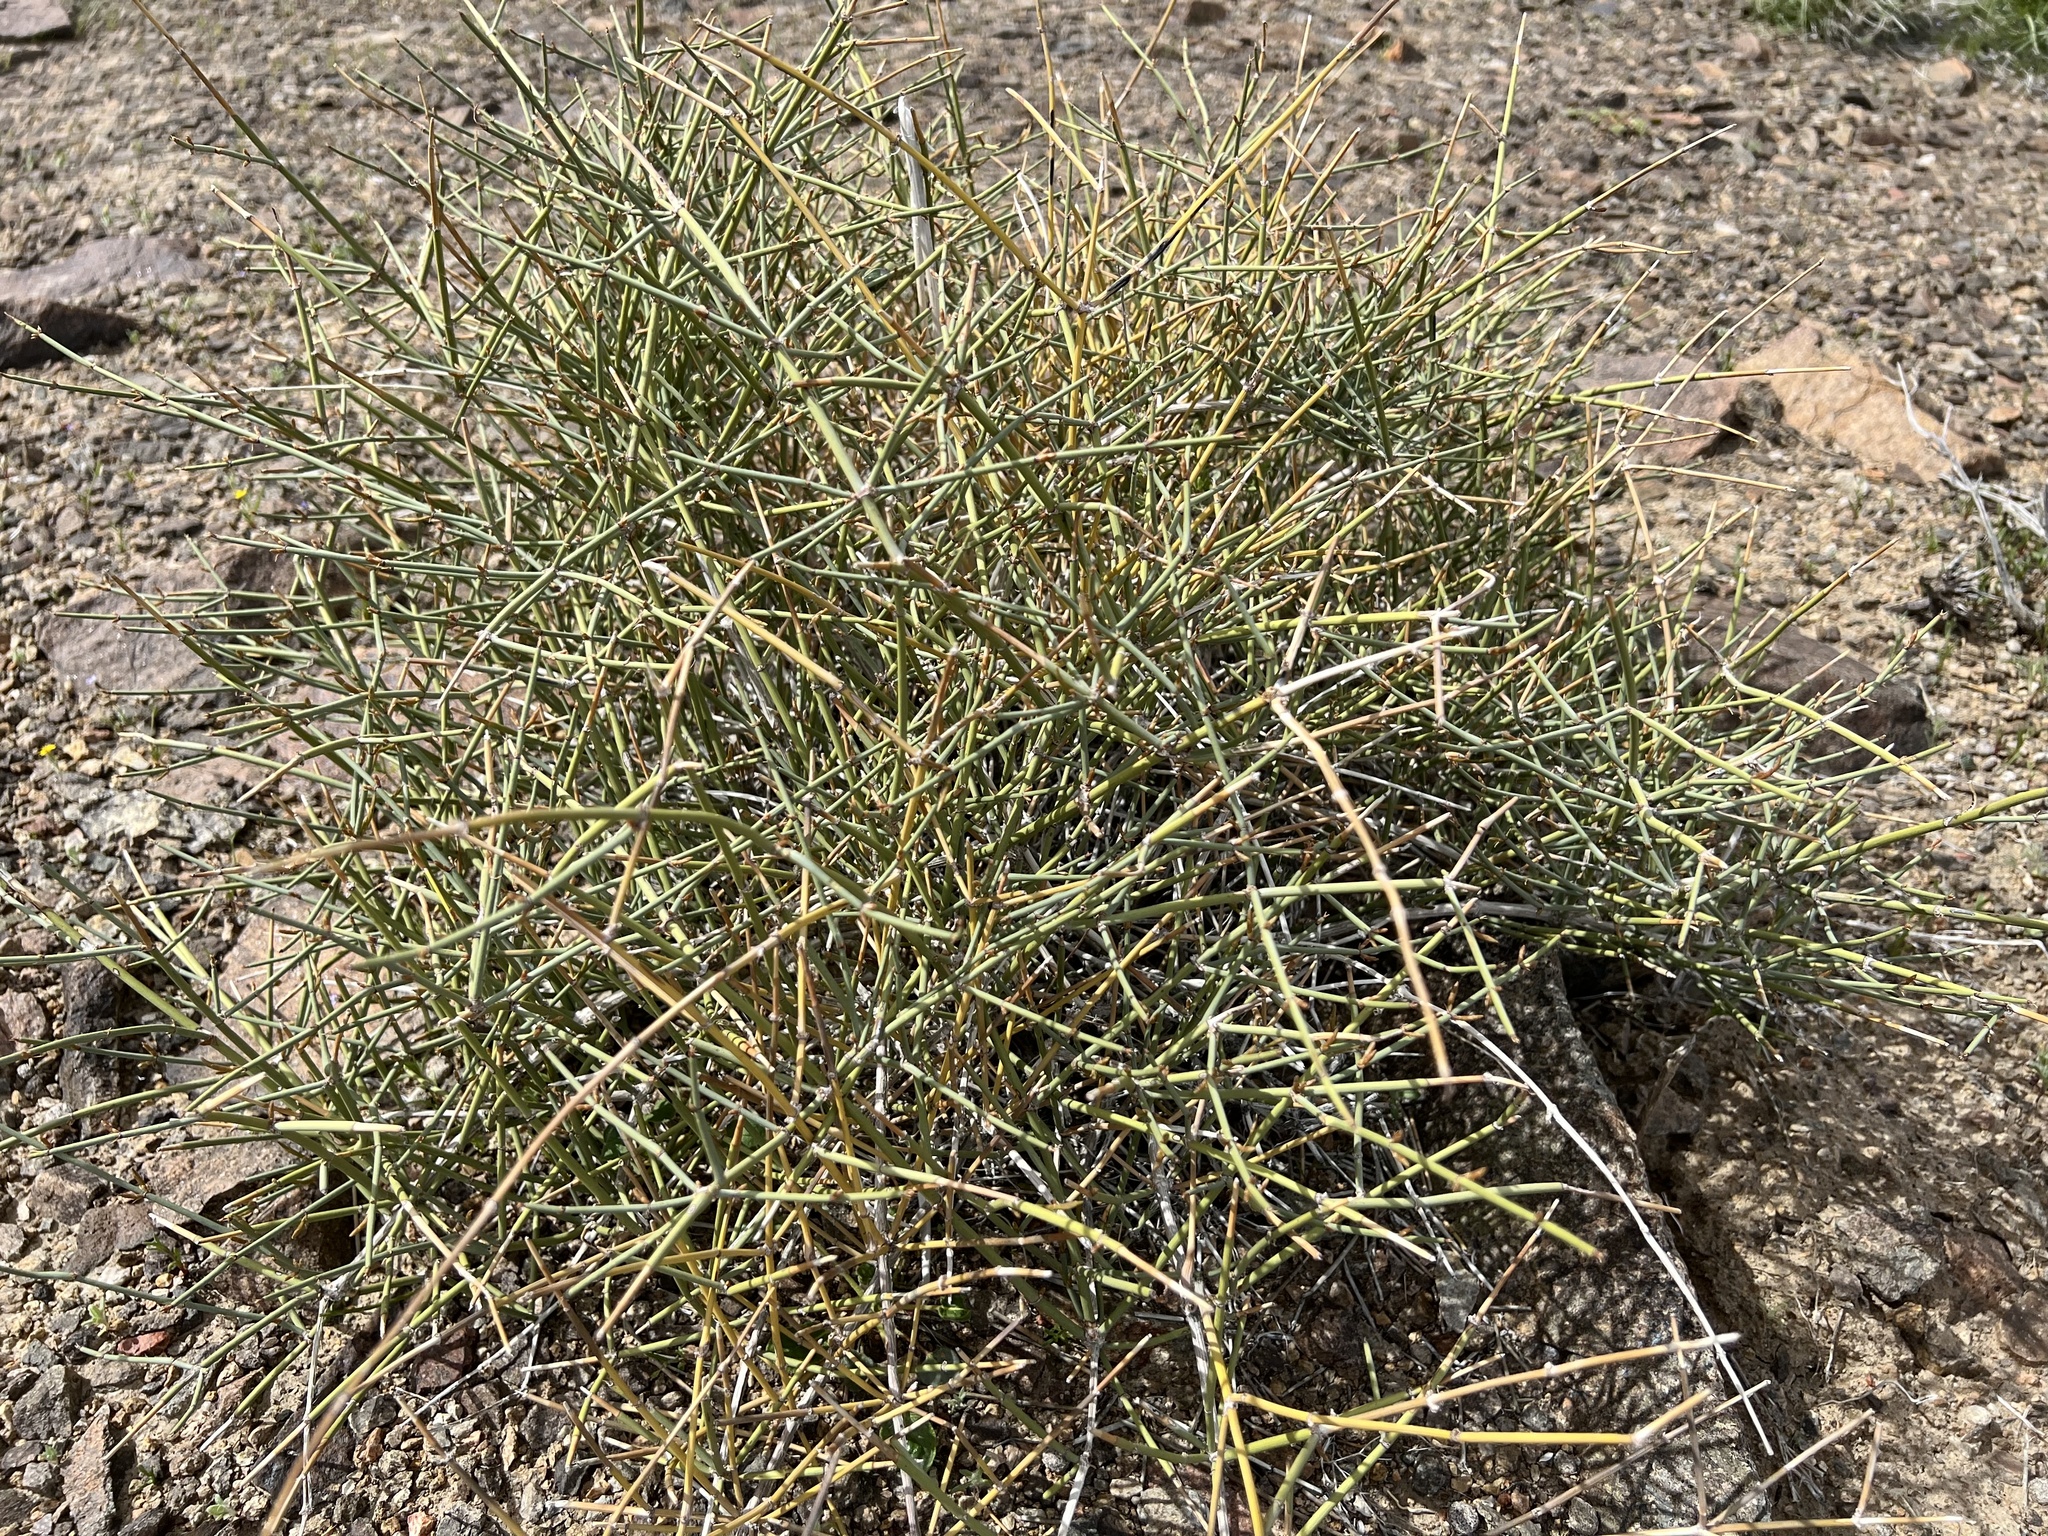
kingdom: Plantae
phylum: Tracheophyta
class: Gnetopsida
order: Ephedrales
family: Ephedraceae
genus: Ephedra
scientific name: Ephedra nevadensis
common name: Gray ephedra
